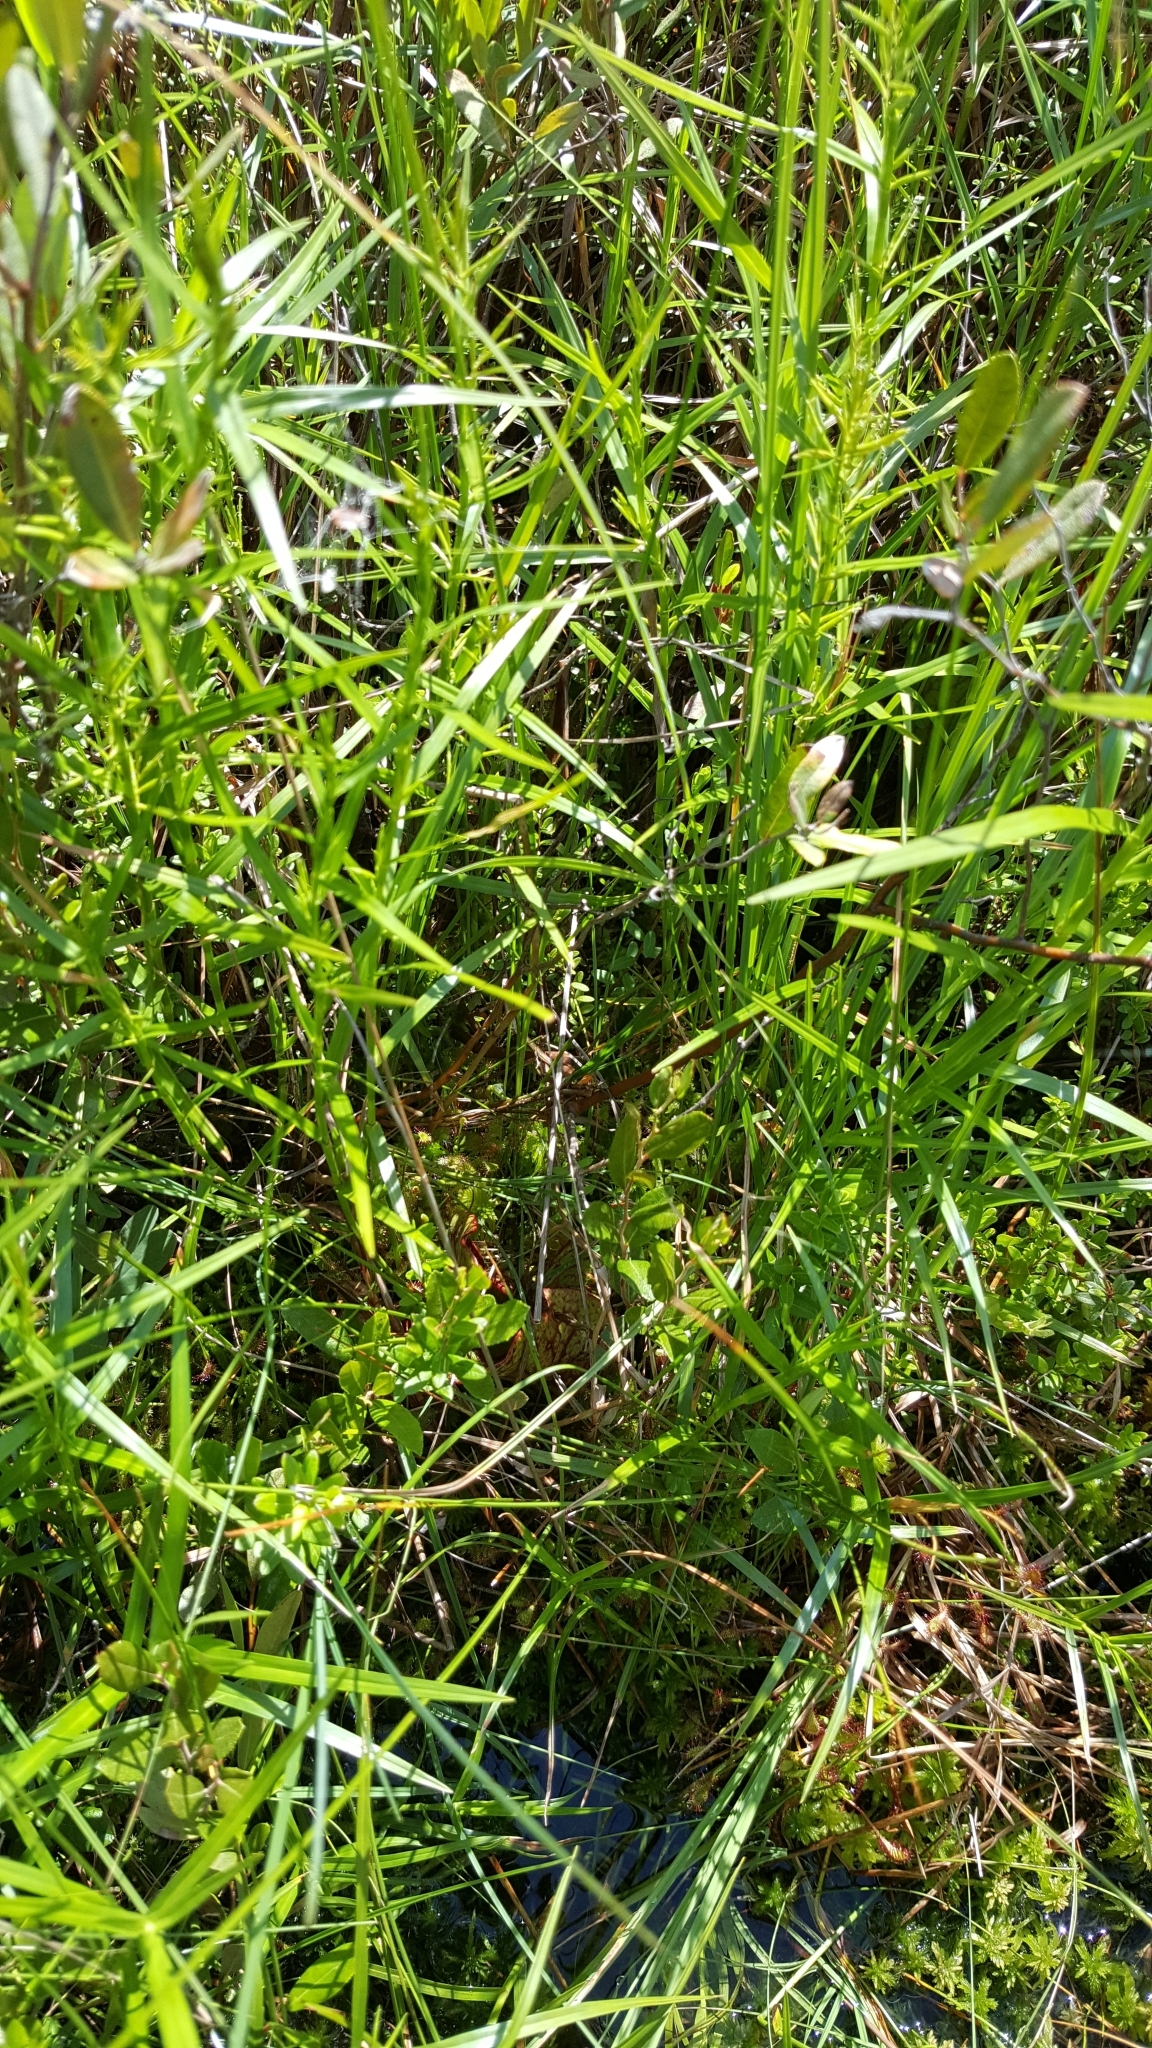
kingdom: Plantae
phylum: Tracheophyta
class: Liliopsida
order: Poales
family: Cyperaceae
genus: Dulichium
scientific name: Dulichium arundinaceum
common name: Three-way sedge
